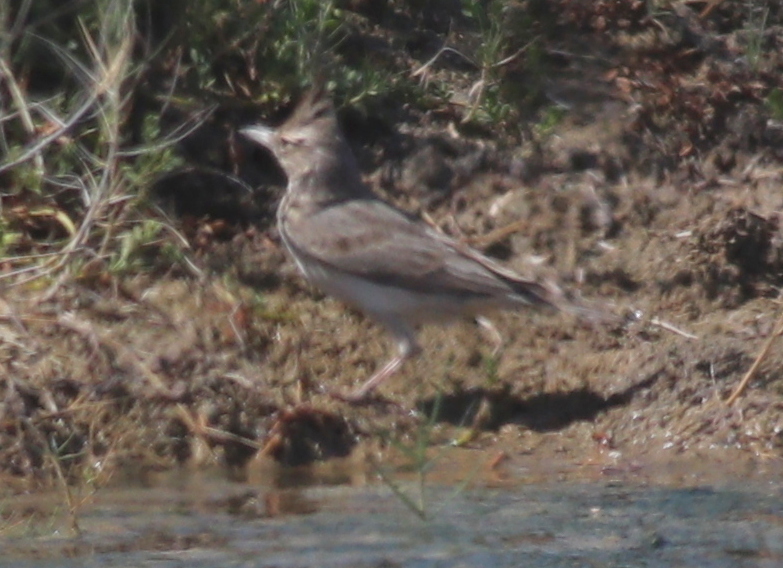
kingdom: Animalia
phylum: Chordata
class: Aves
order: Passeriformes
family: Alaudidae
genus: Galerida
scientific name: Galerida cristata
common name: Crested lark
